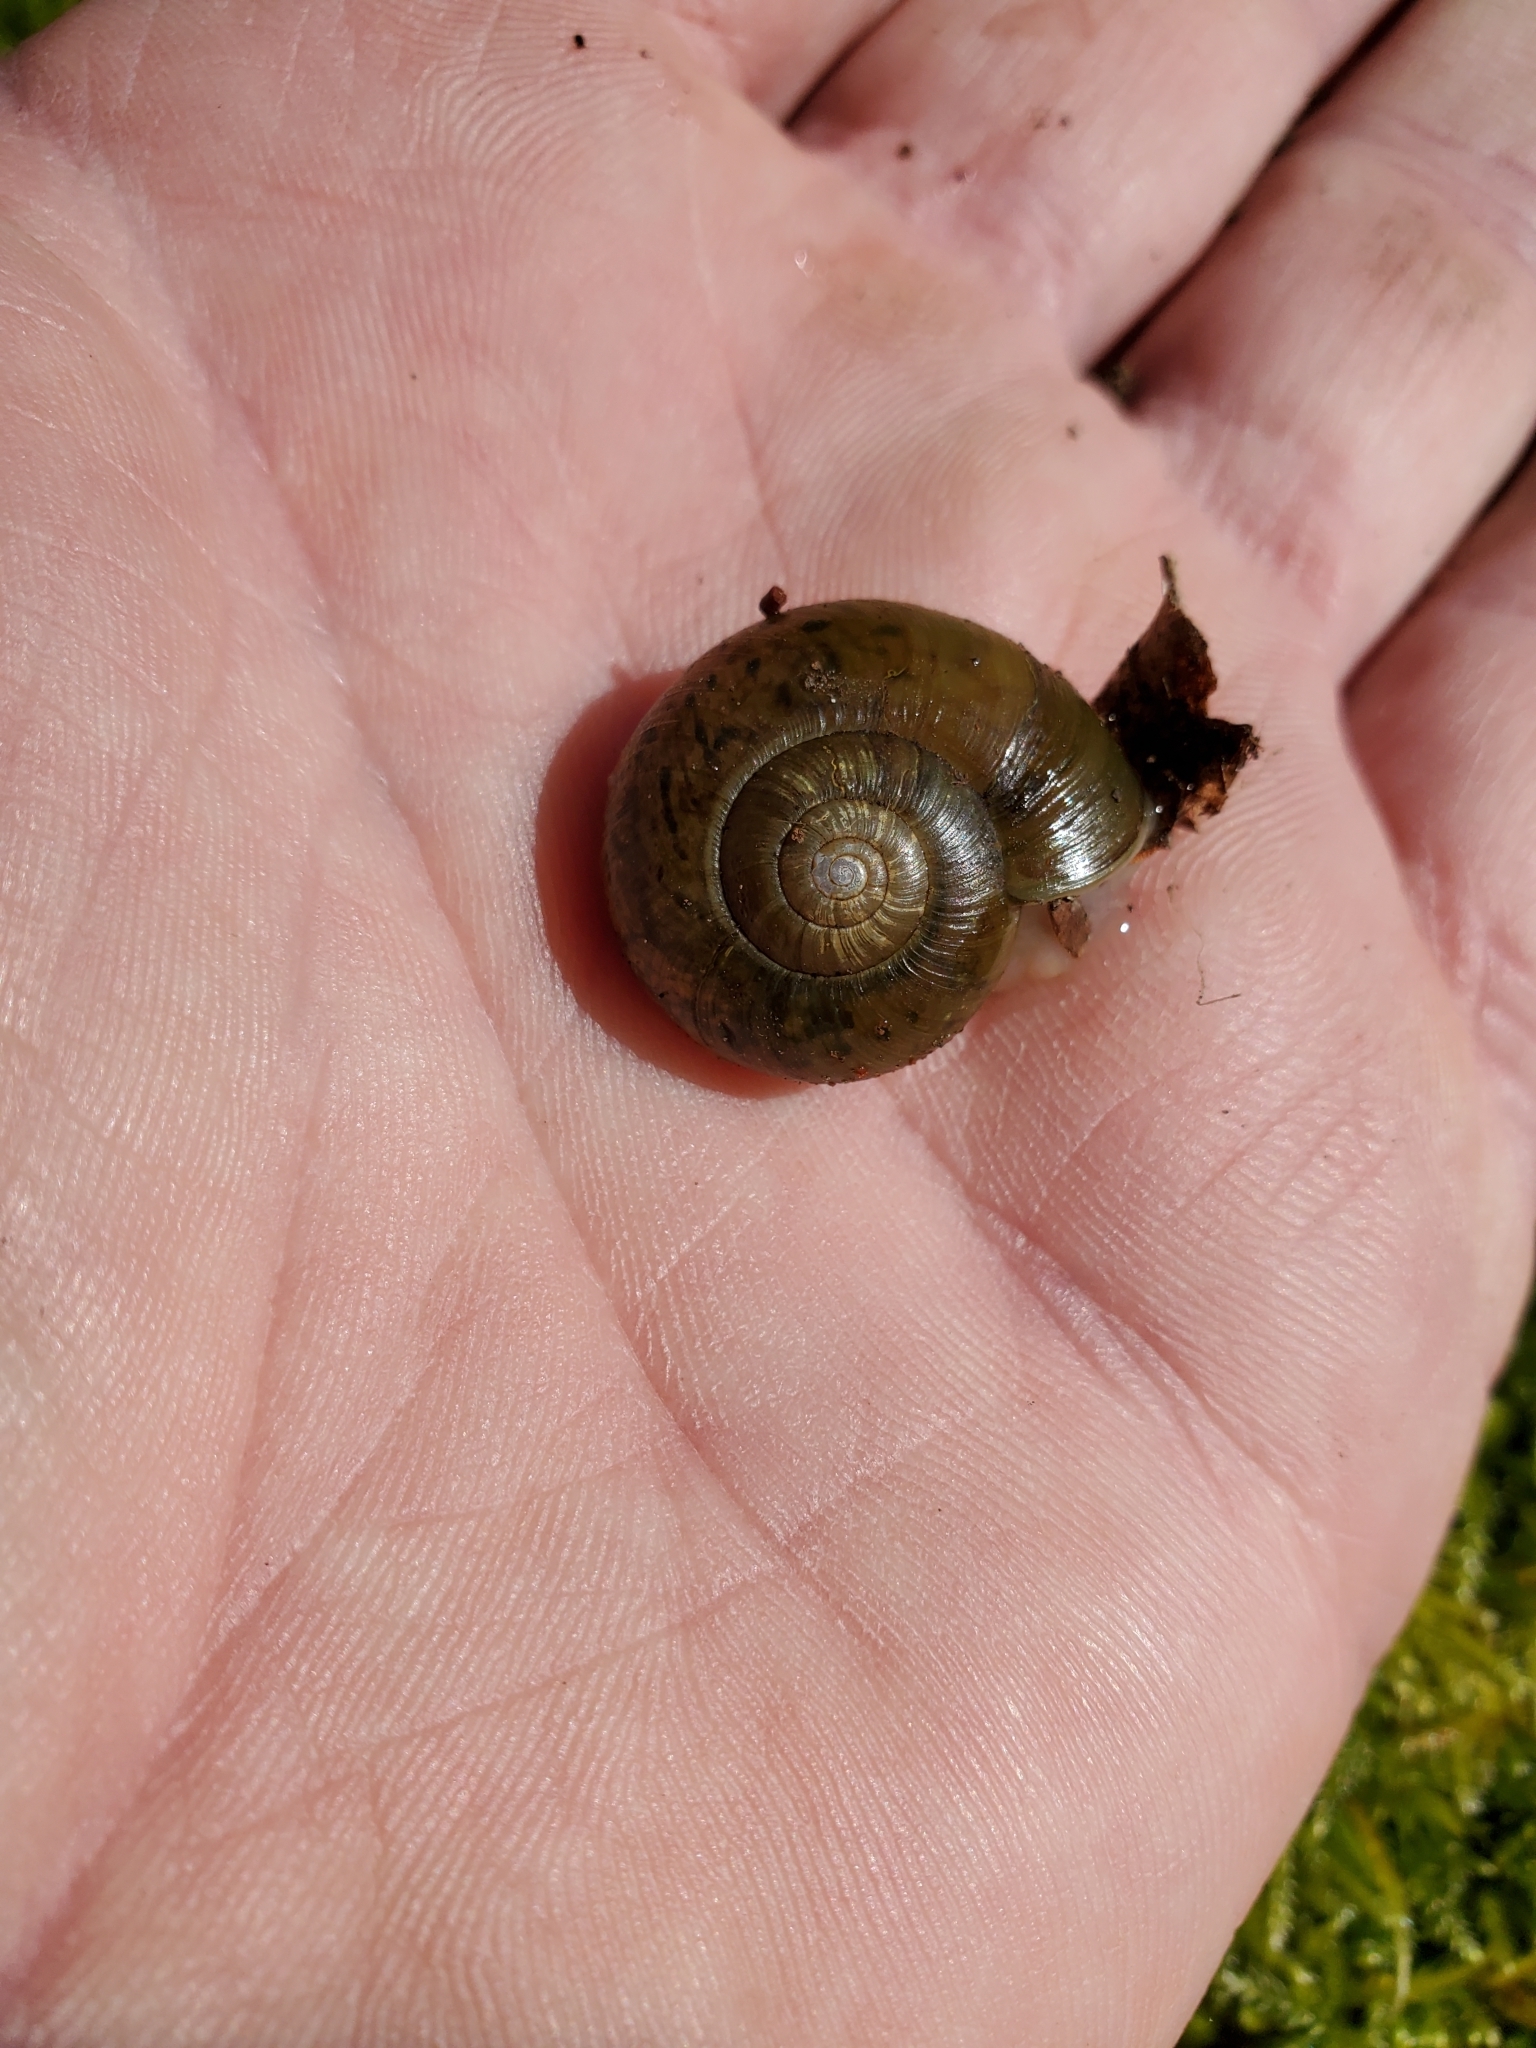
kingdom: Animalia
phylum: Mollusca
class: Gastropoda
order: Stylommatophora
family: Haplotrematidae
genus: Haplotrema
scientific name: Haplotrema vancouverense
